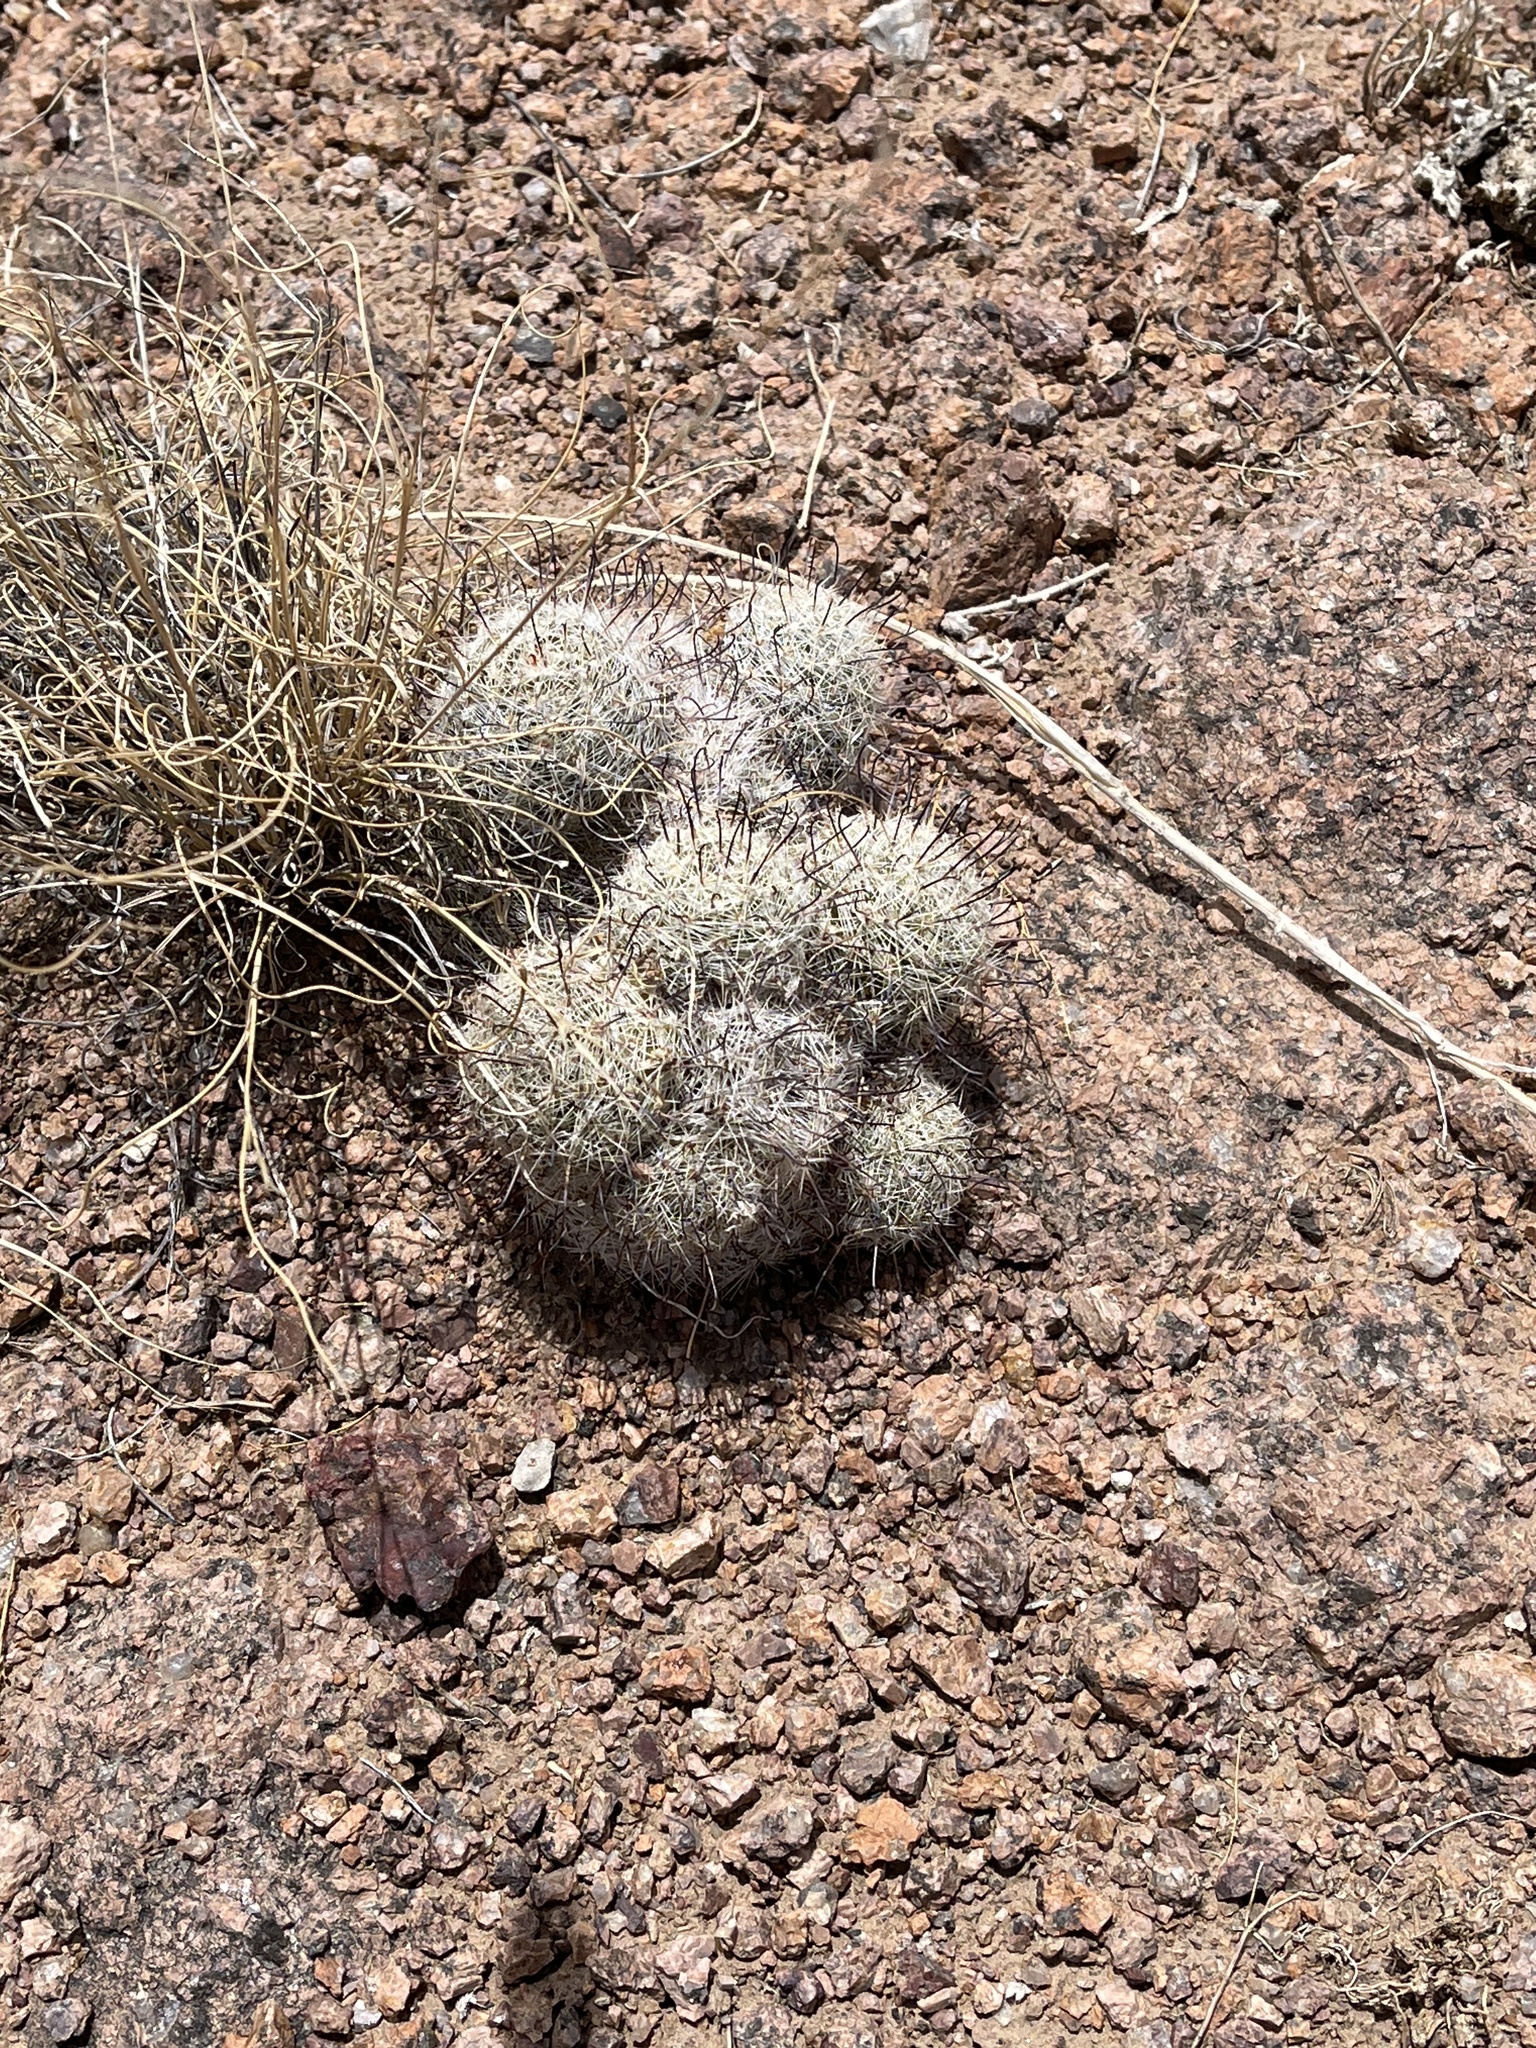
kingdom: Plantae
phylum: Tracheophyta
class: Magnoliopsida
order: Caryophyllales
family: Cactaceae
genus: Cochemiea
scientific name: Cochemiea grahamii
